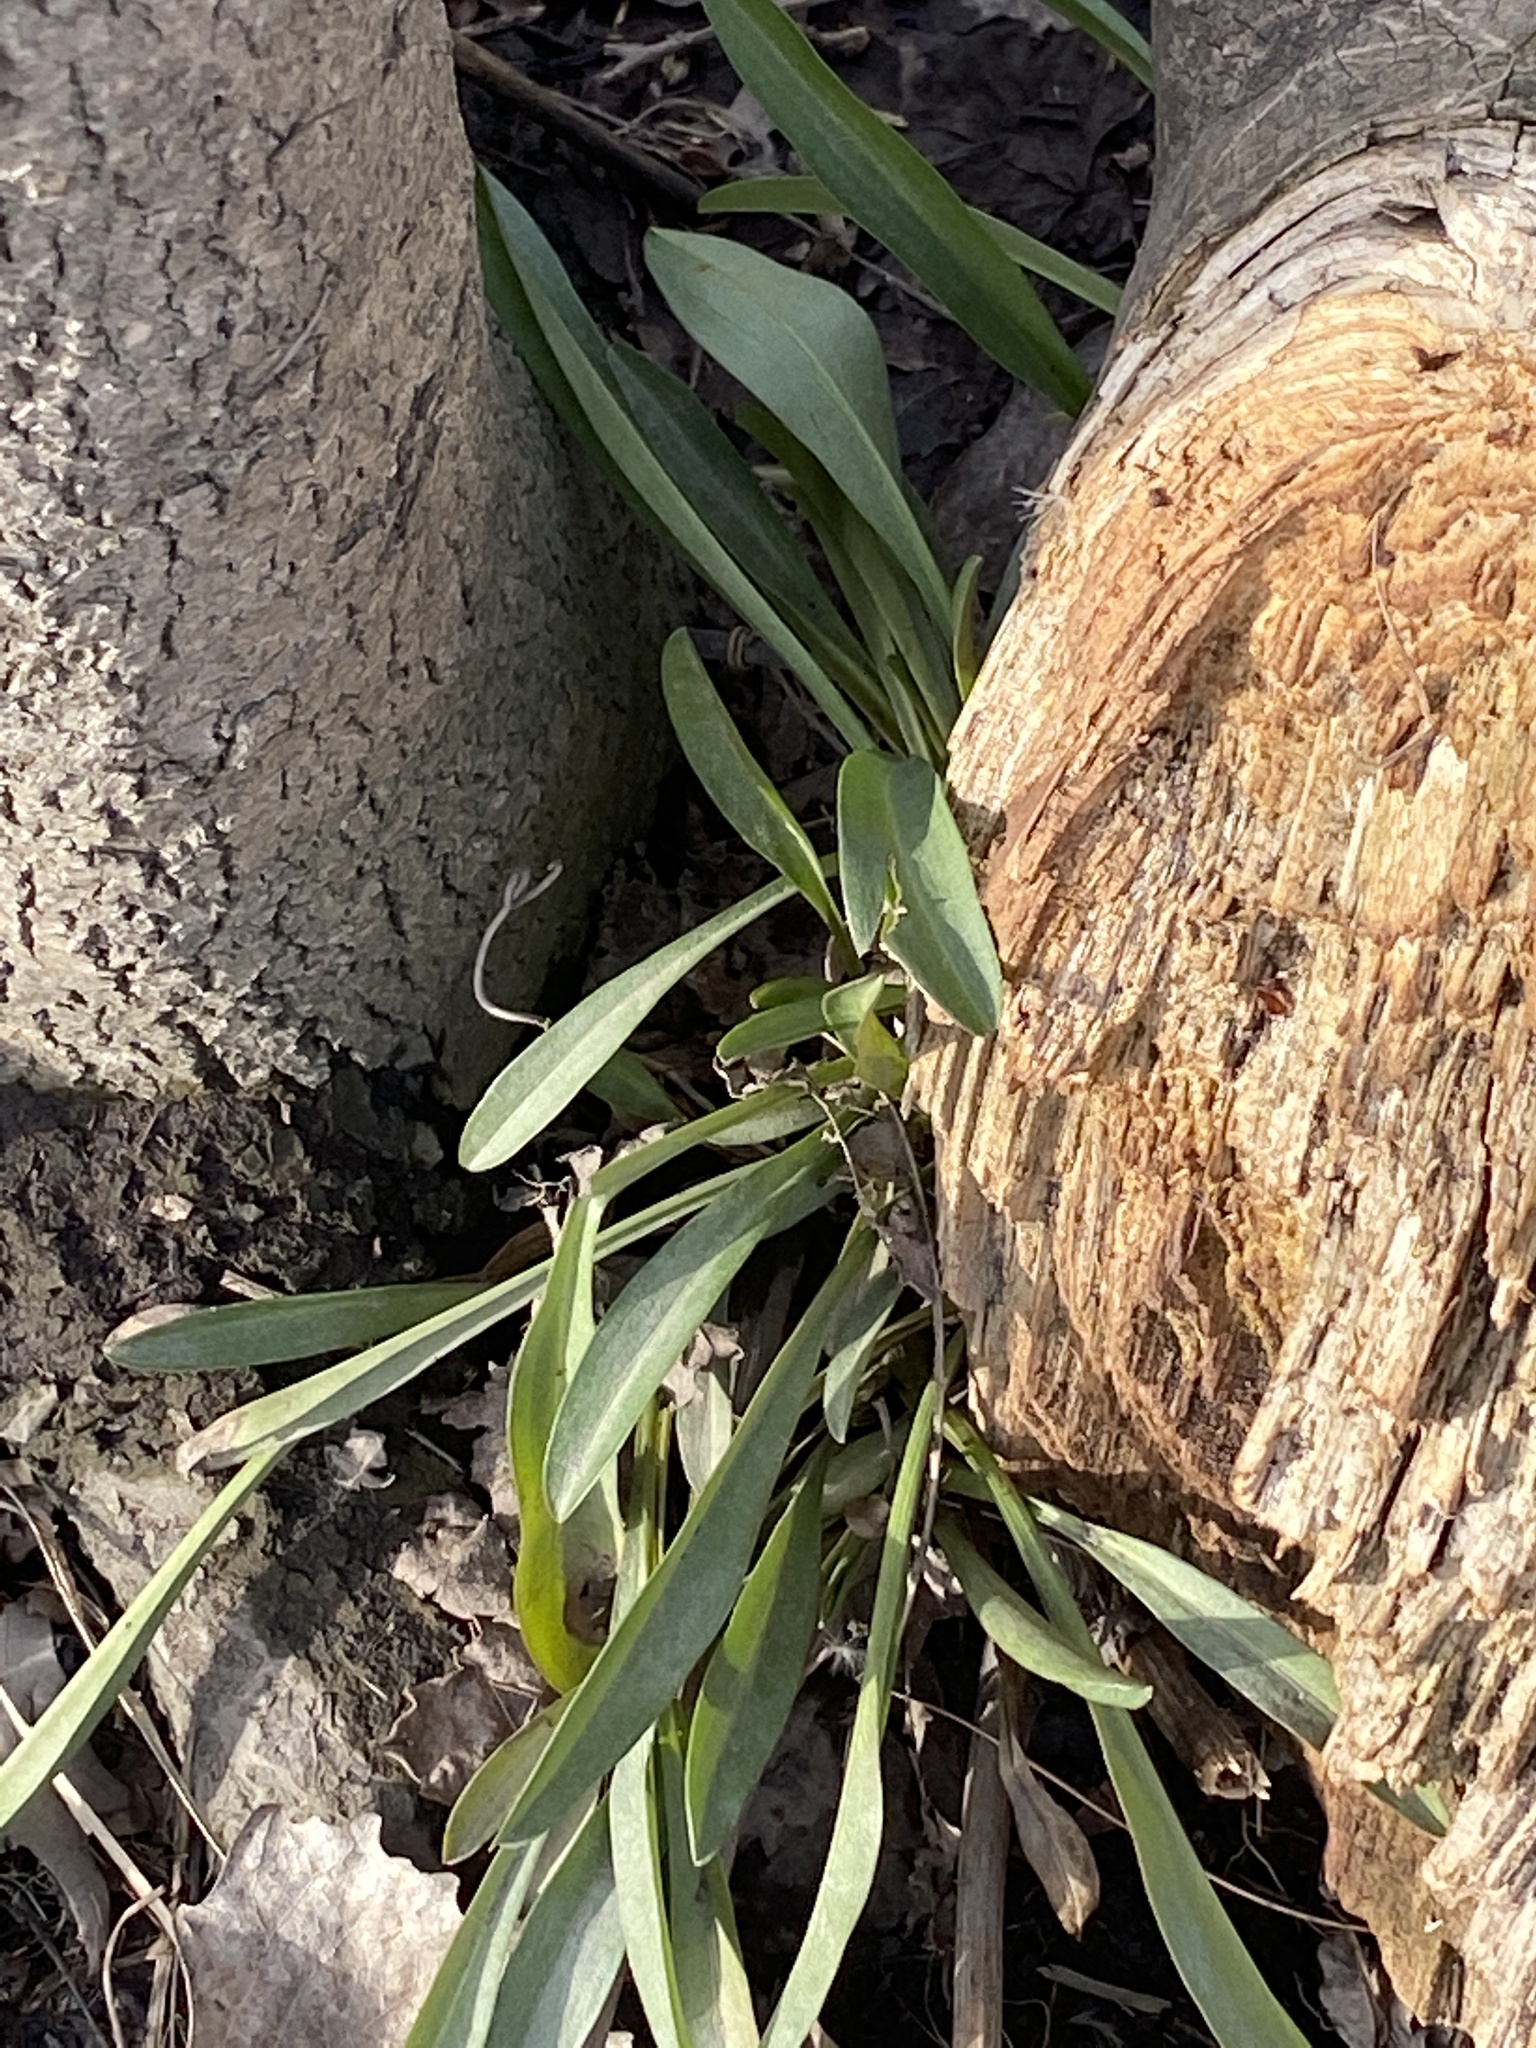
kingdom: Plantae
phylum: Tracheophyta
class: Magnoliopsida
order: Asterales
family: Asteraceae
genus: Solidago
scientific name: Solidago sempervirens
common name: Salt-marsh goldenrod
